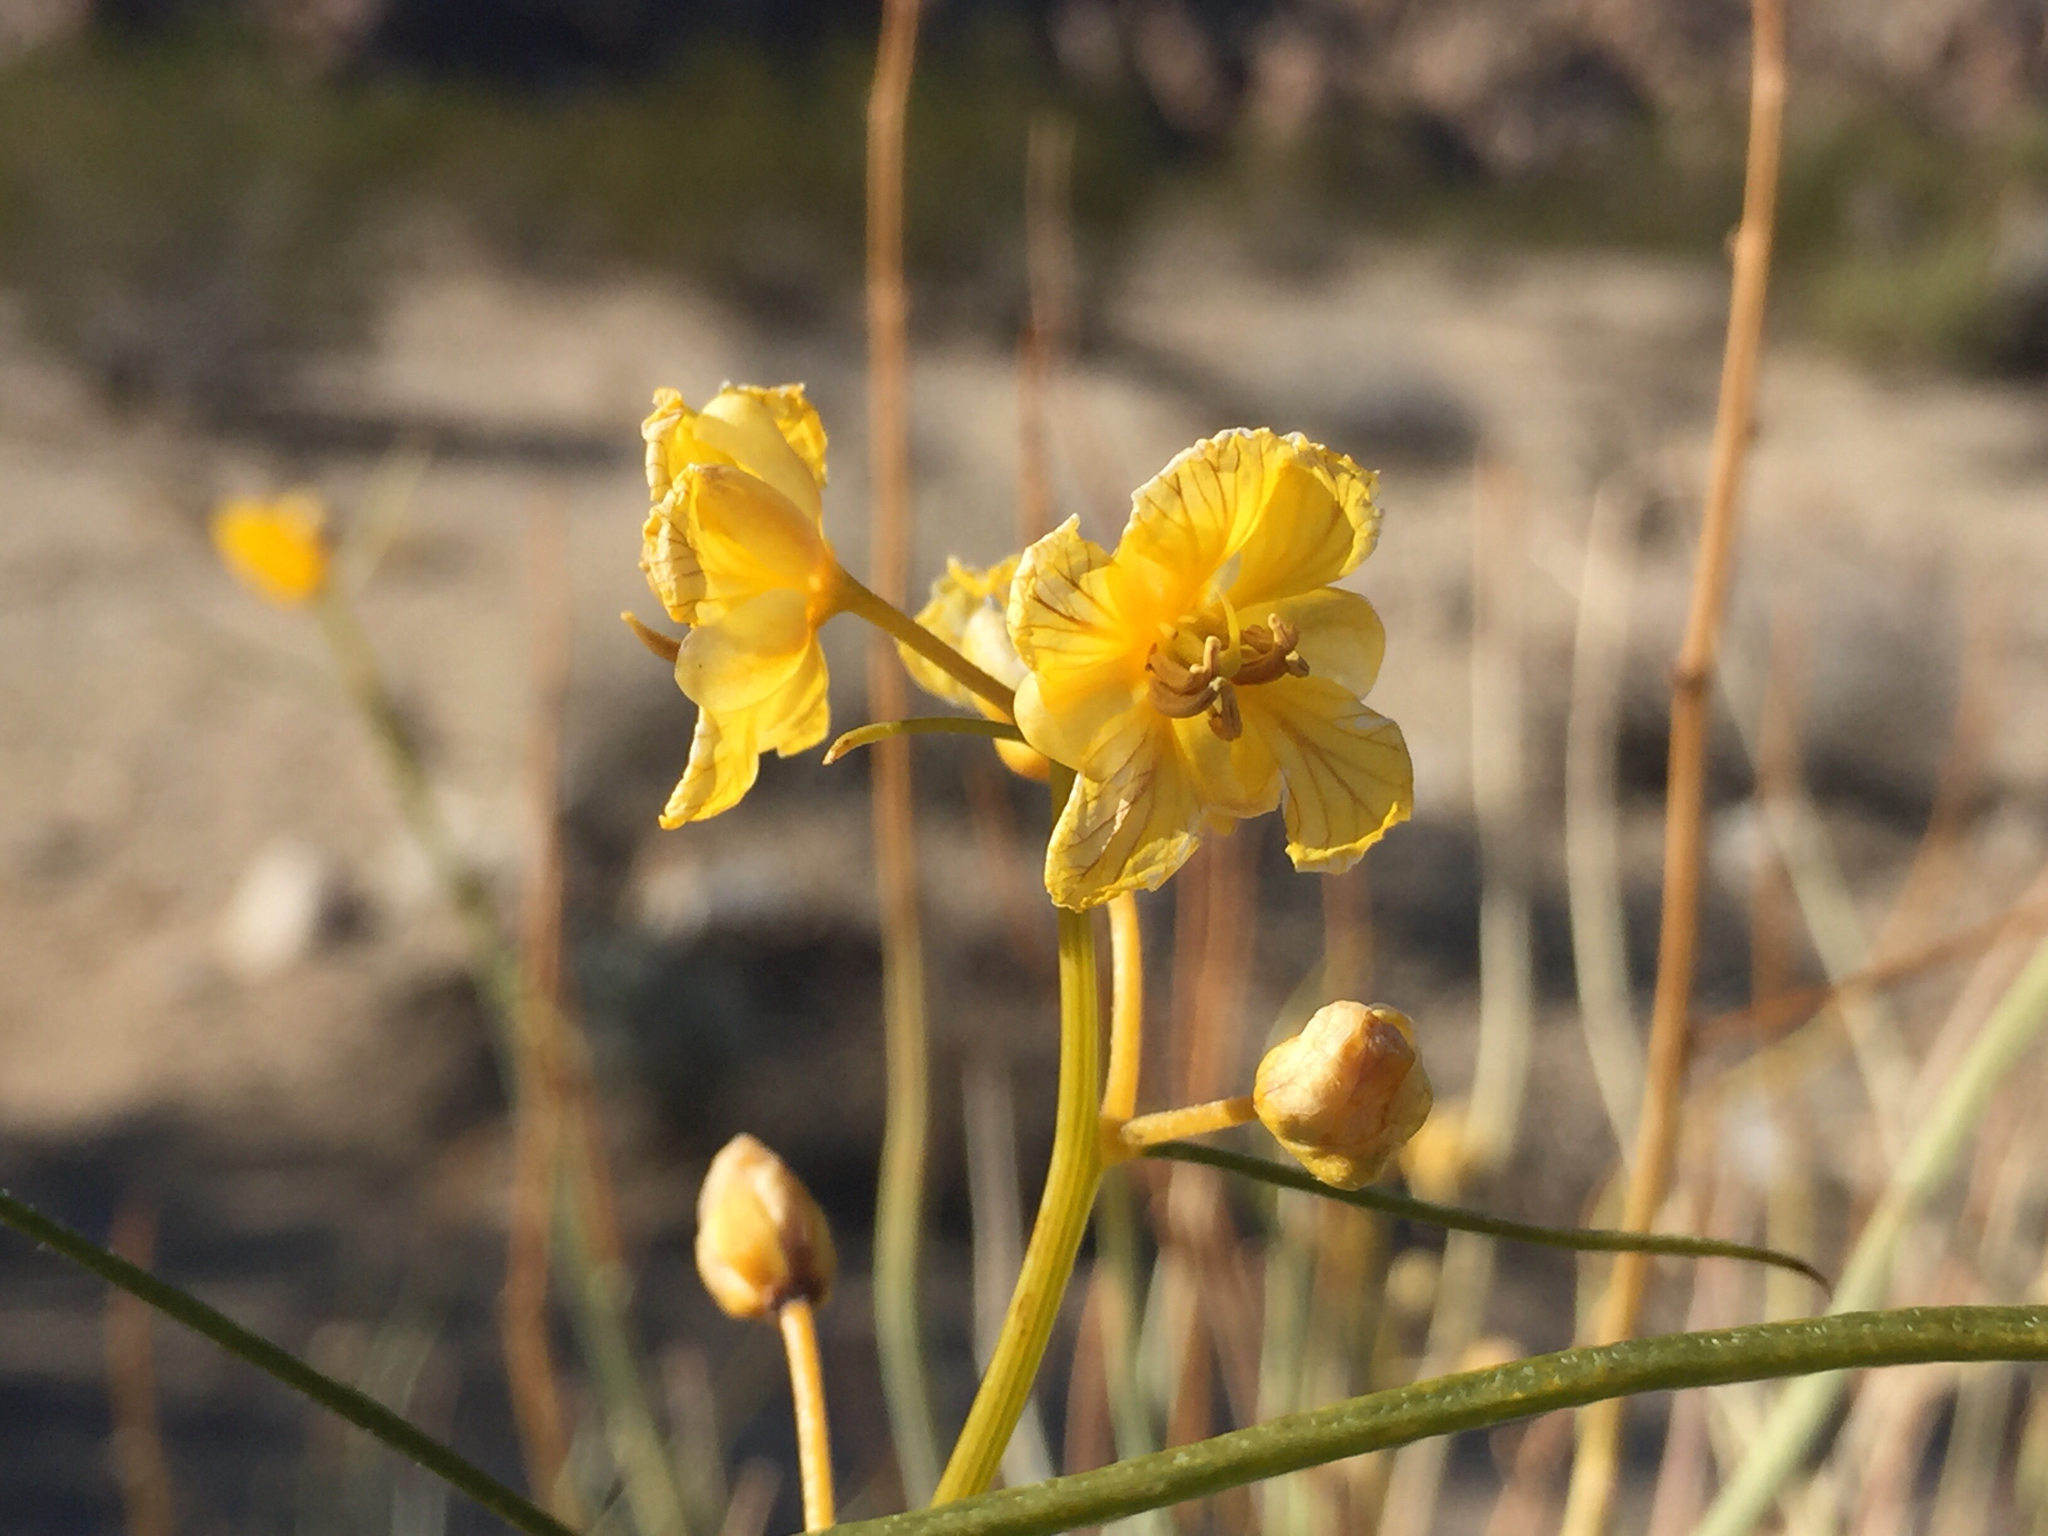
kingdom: Plantae
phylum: Tracheophyta
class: Magnoliopsida
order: Fabales
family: Fabaceae
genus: Senna
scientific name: Senna armata
